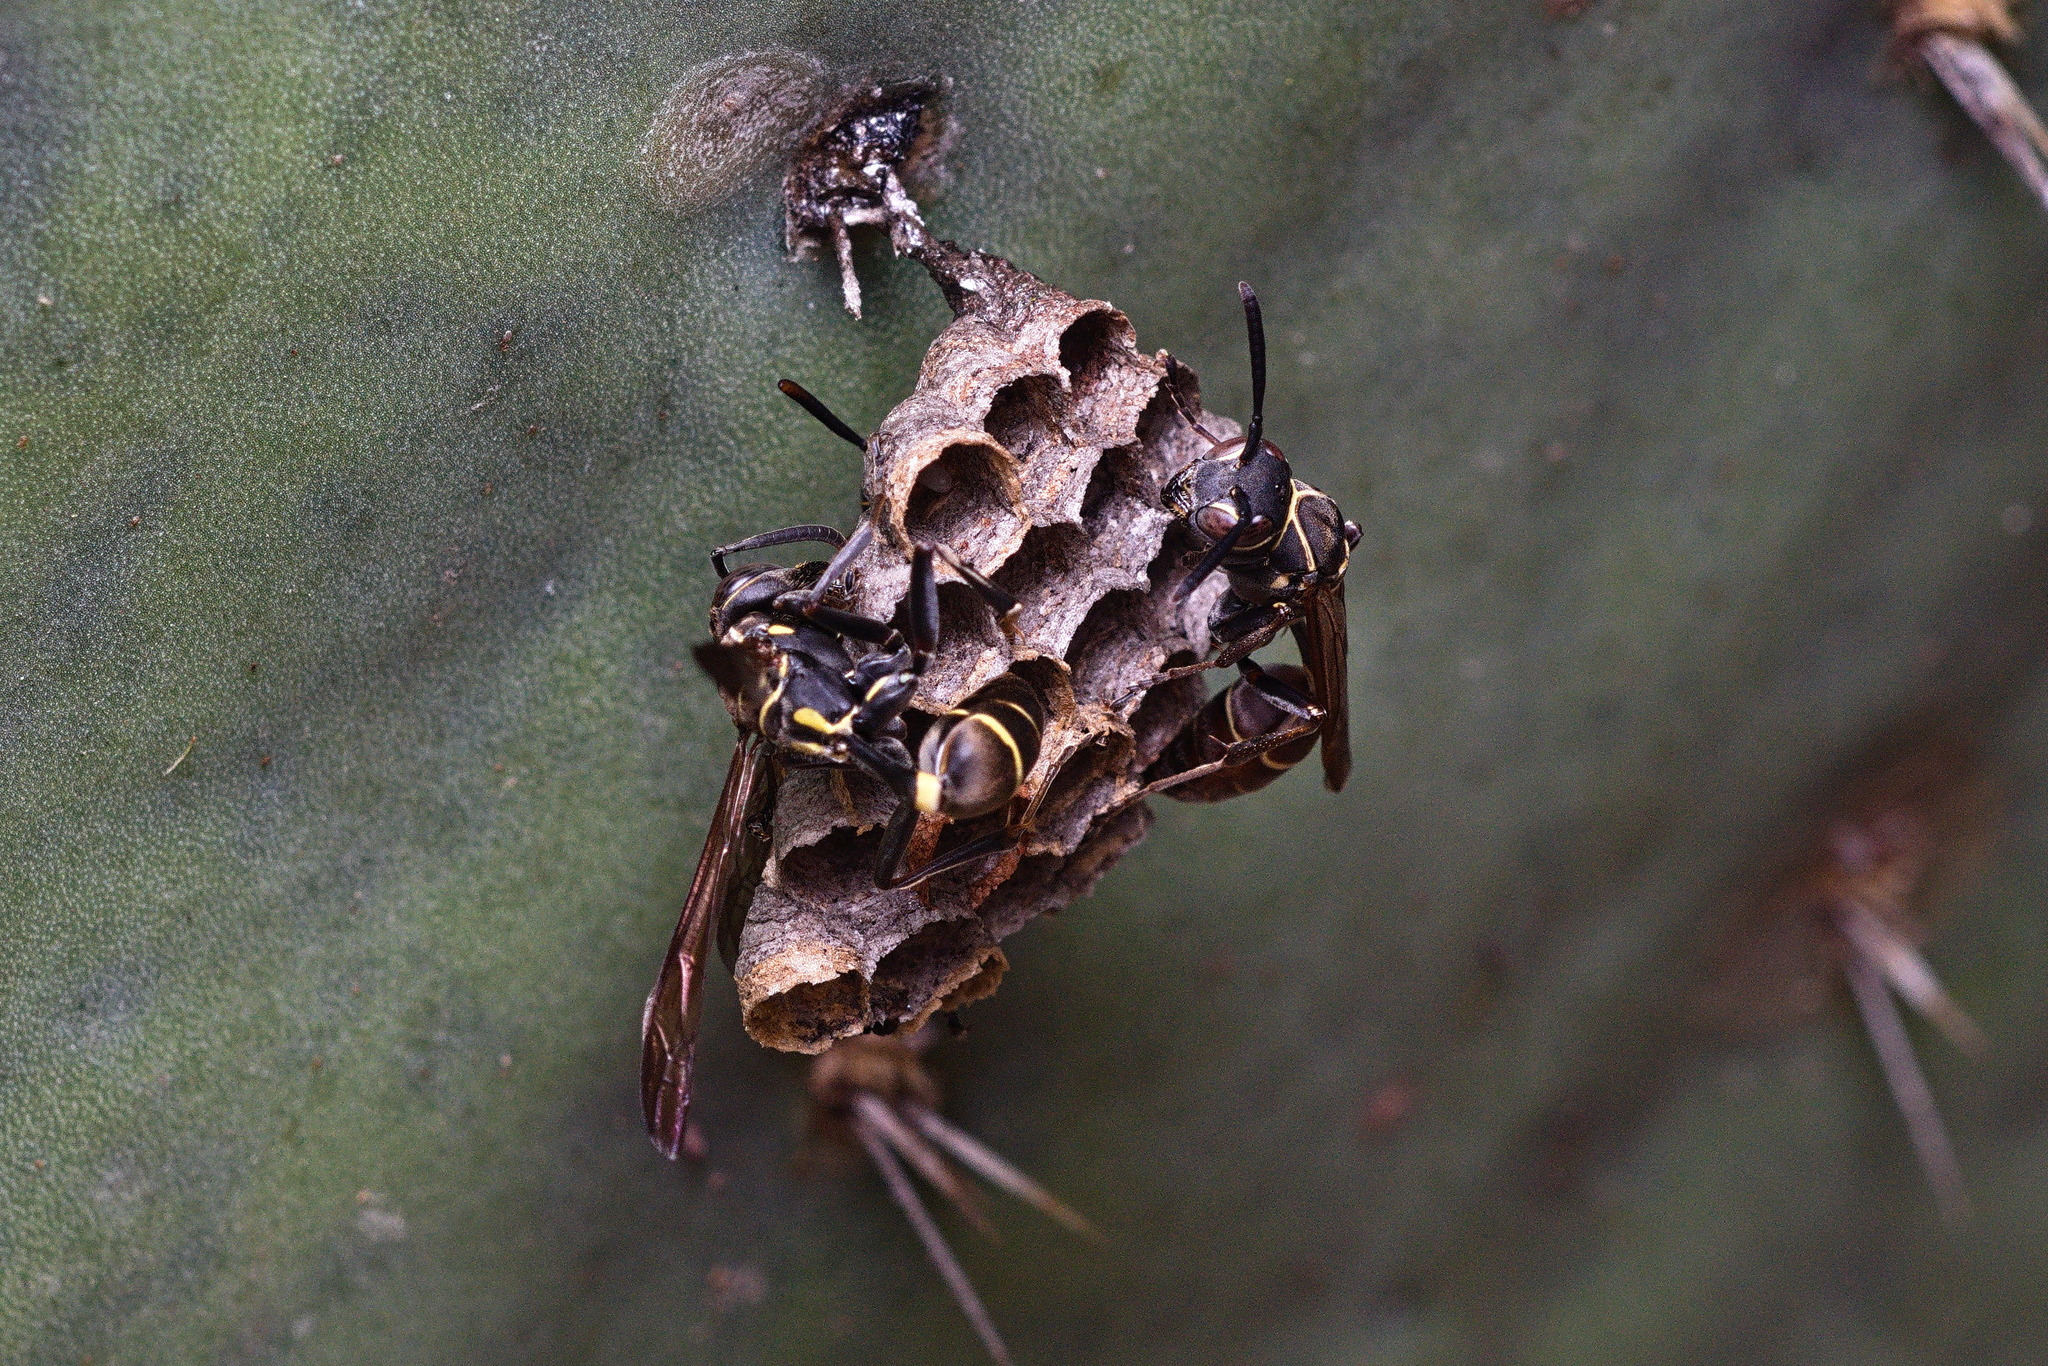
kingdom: Animalia
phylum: Arthropoda
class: Insecta
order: Hymenoptera
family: Vespidae
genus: Mischocyttarus
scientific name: Mischocyttarus pallidipectus
